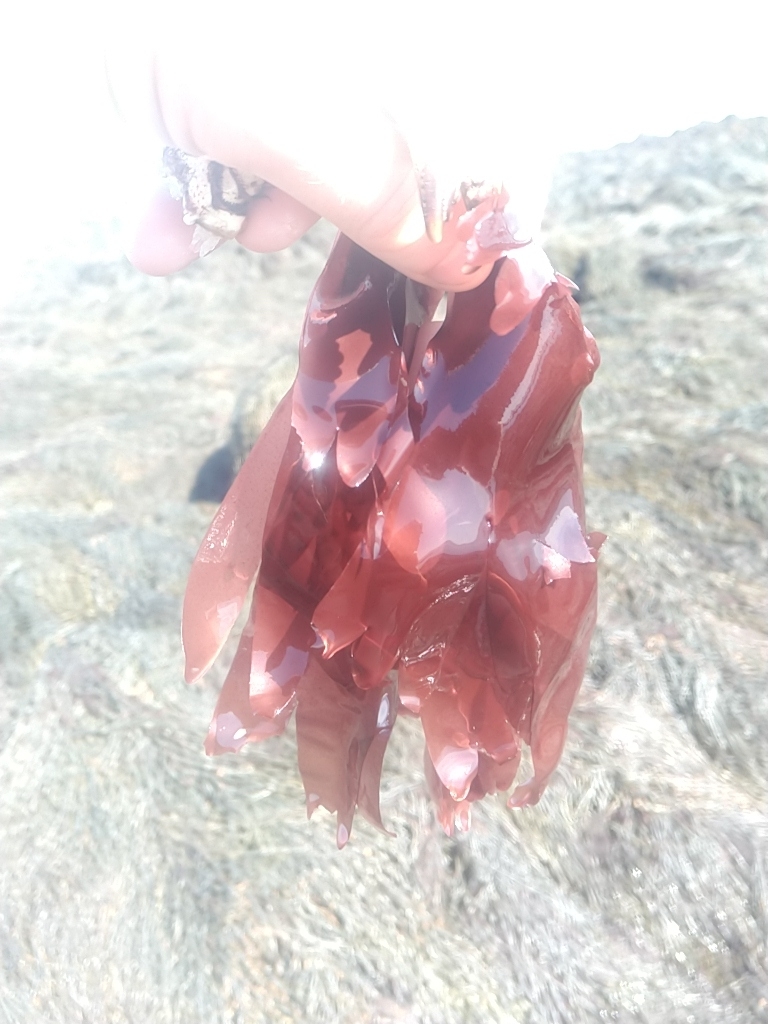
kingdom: Plantae
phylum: Rhodophyta
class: Florideophyceae
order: Palmariales
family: Palmariaceae
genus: Palmaria
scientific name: Palmaria palmata
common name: Dulse
